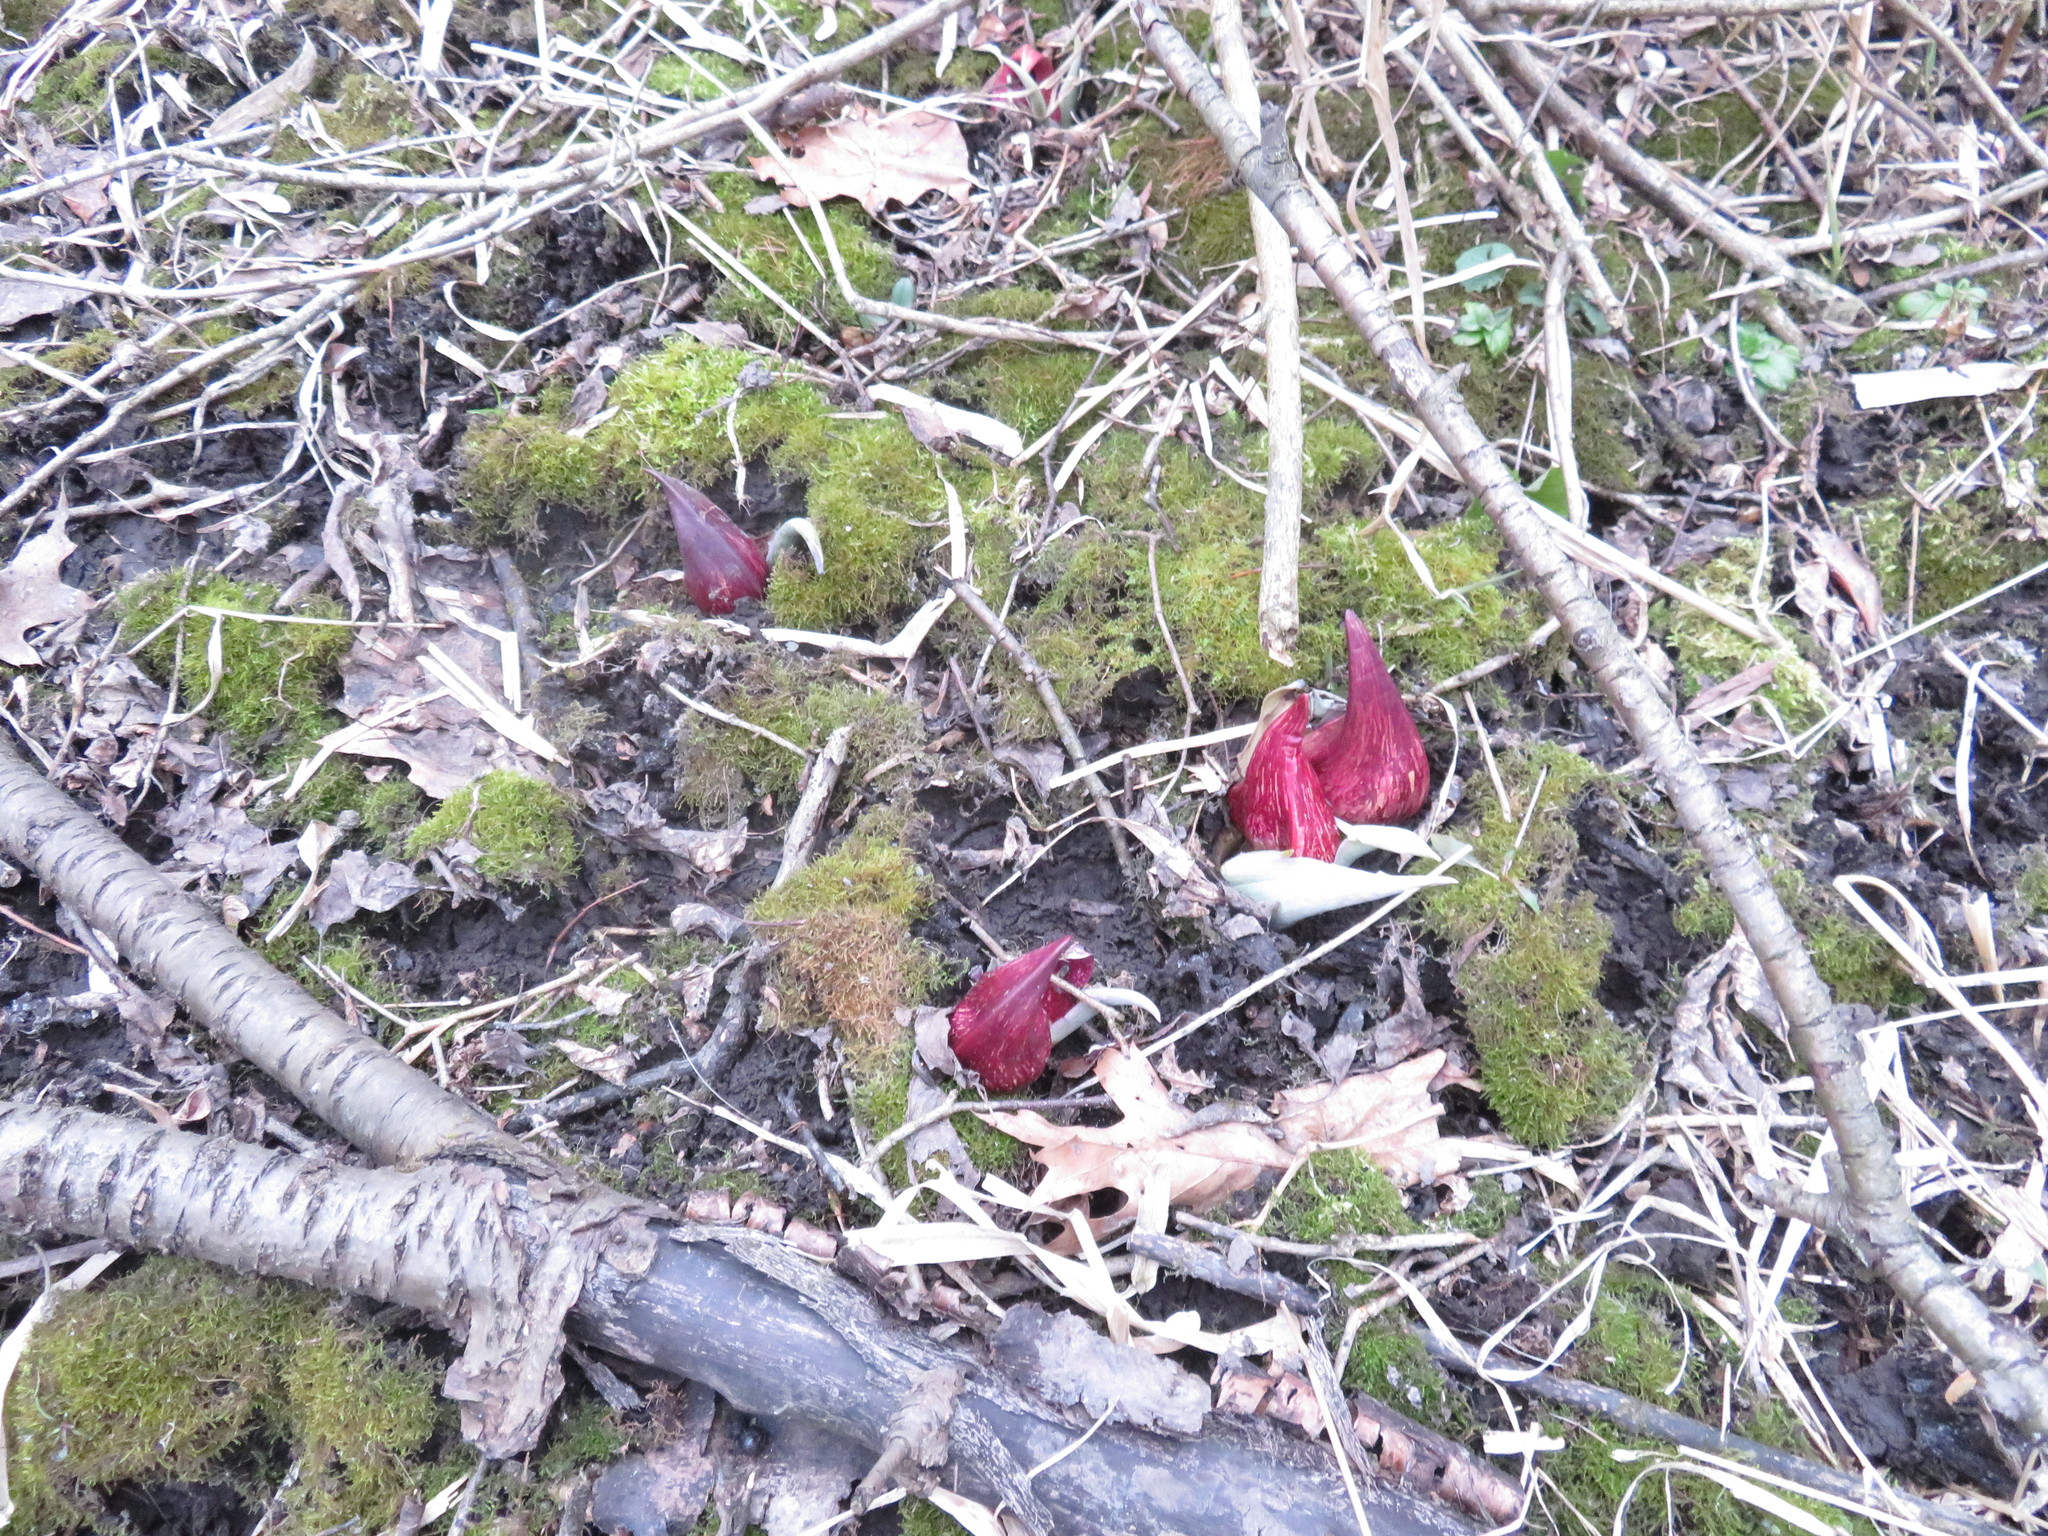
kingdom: Plantae
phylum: Tracheophyta
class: Liliopsida
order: Alismatales
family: Araceae
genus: Symplocarpus
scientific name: Symplocarpus foetidus
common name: Eastern skunk cabbage
